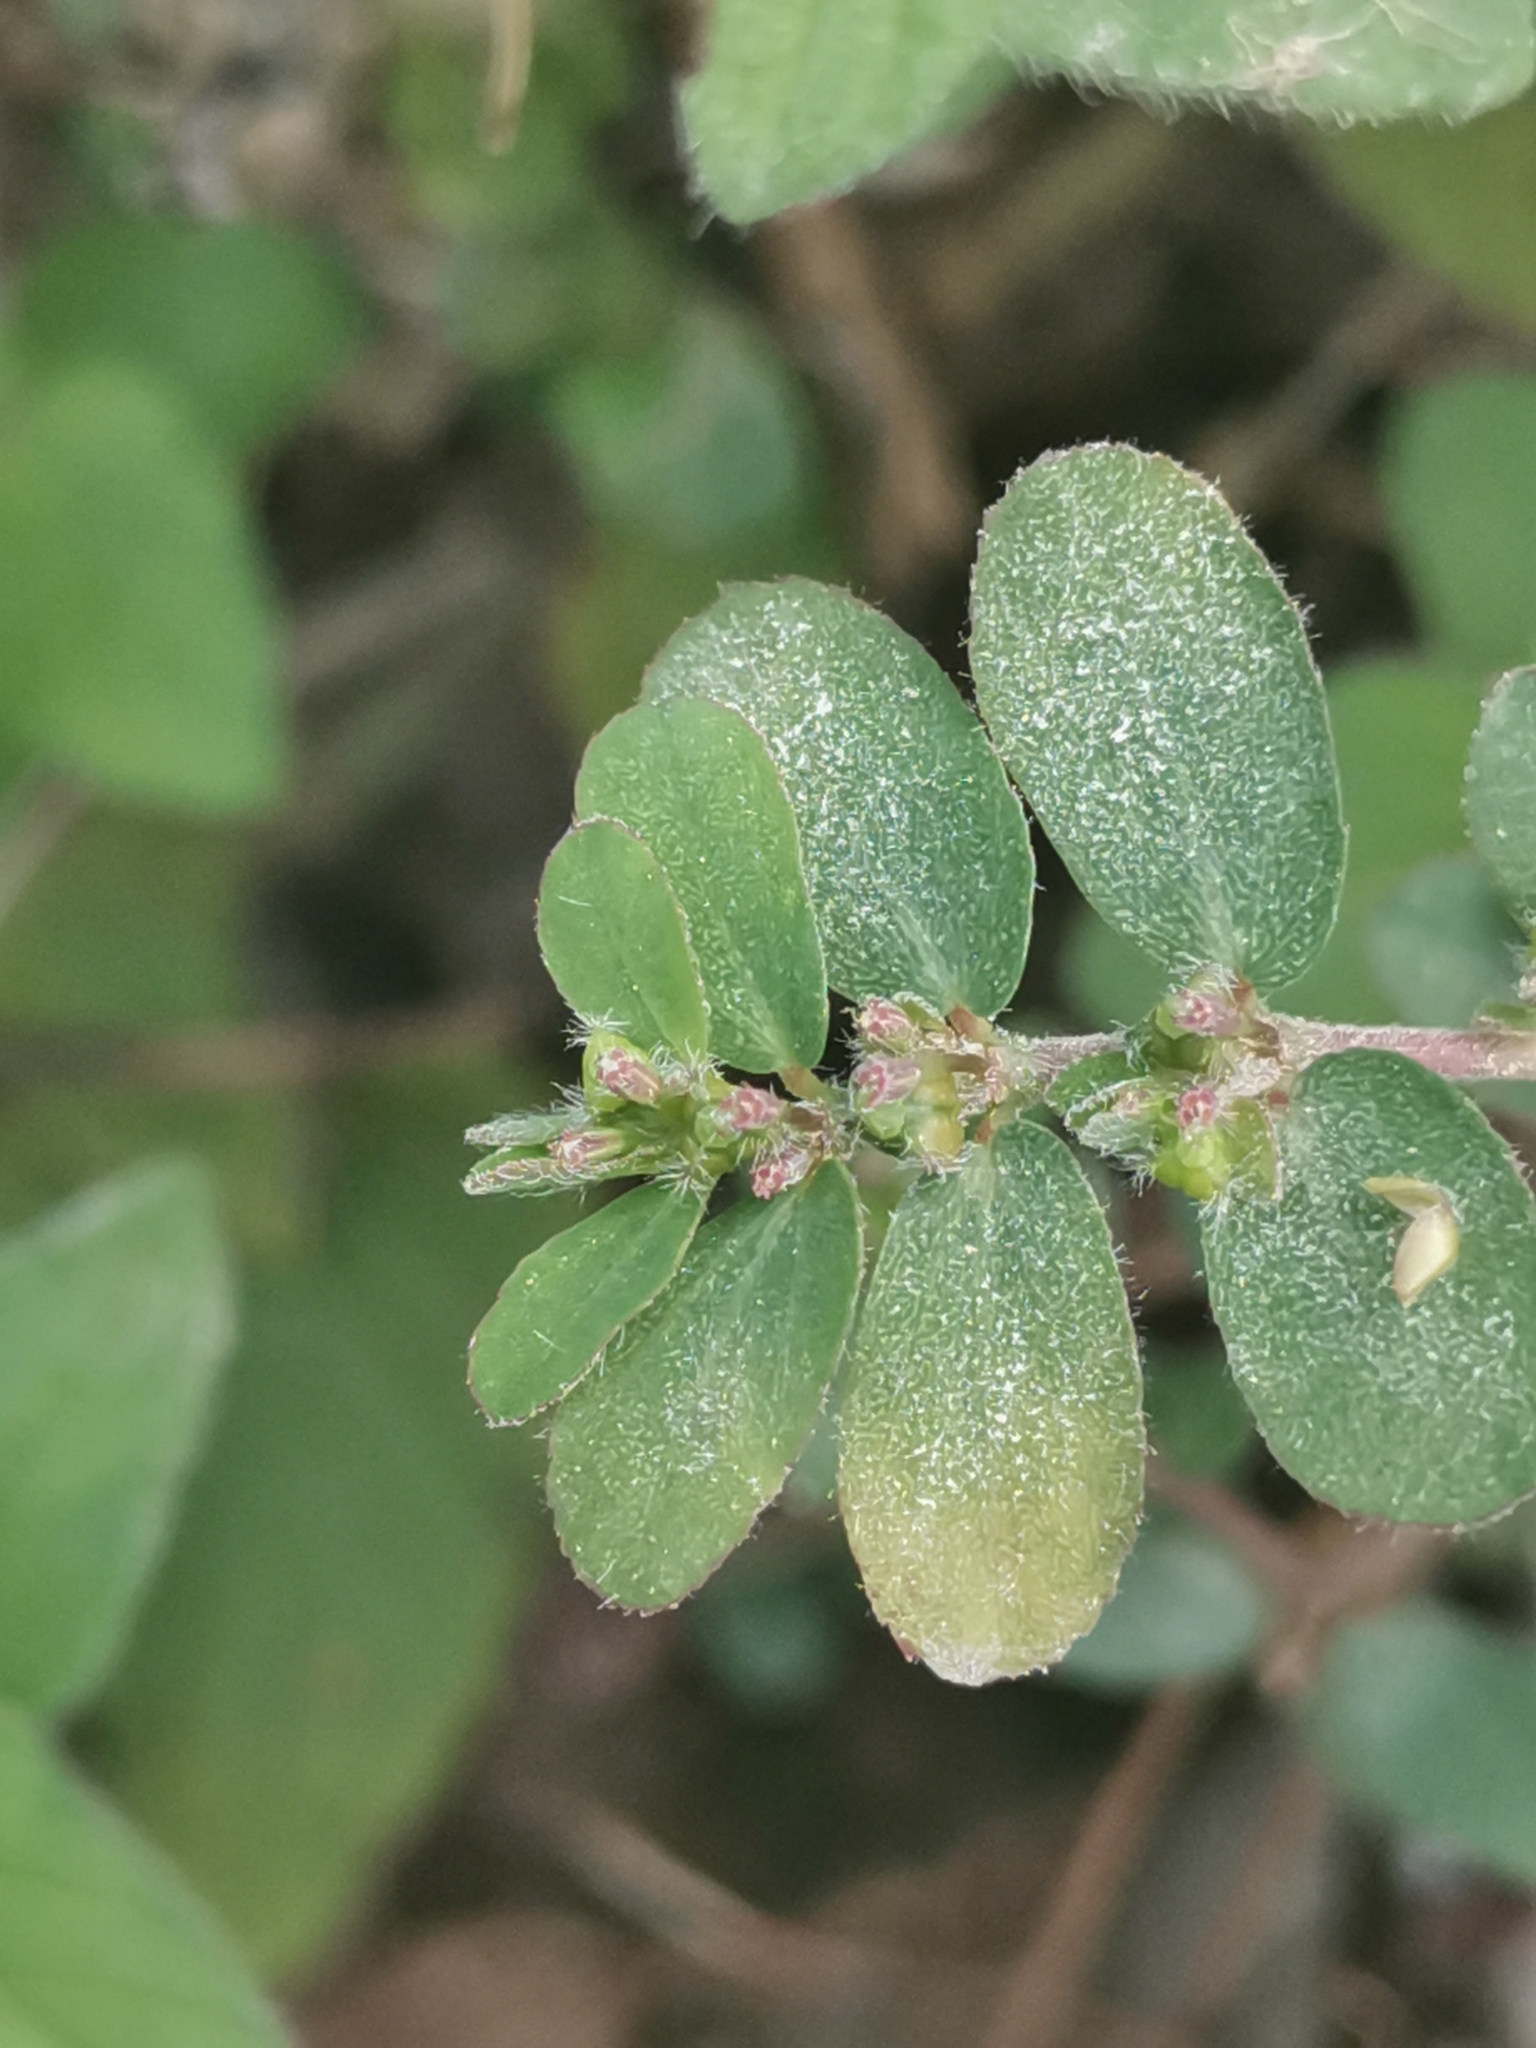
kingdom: Plantae
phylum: Tracheophyta
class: Magnoliopsida
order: Malpighiales
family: Euphorbiaceae
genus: Euphorbia
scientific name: Euphorbia prostrata
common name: Prostrate sandmat
